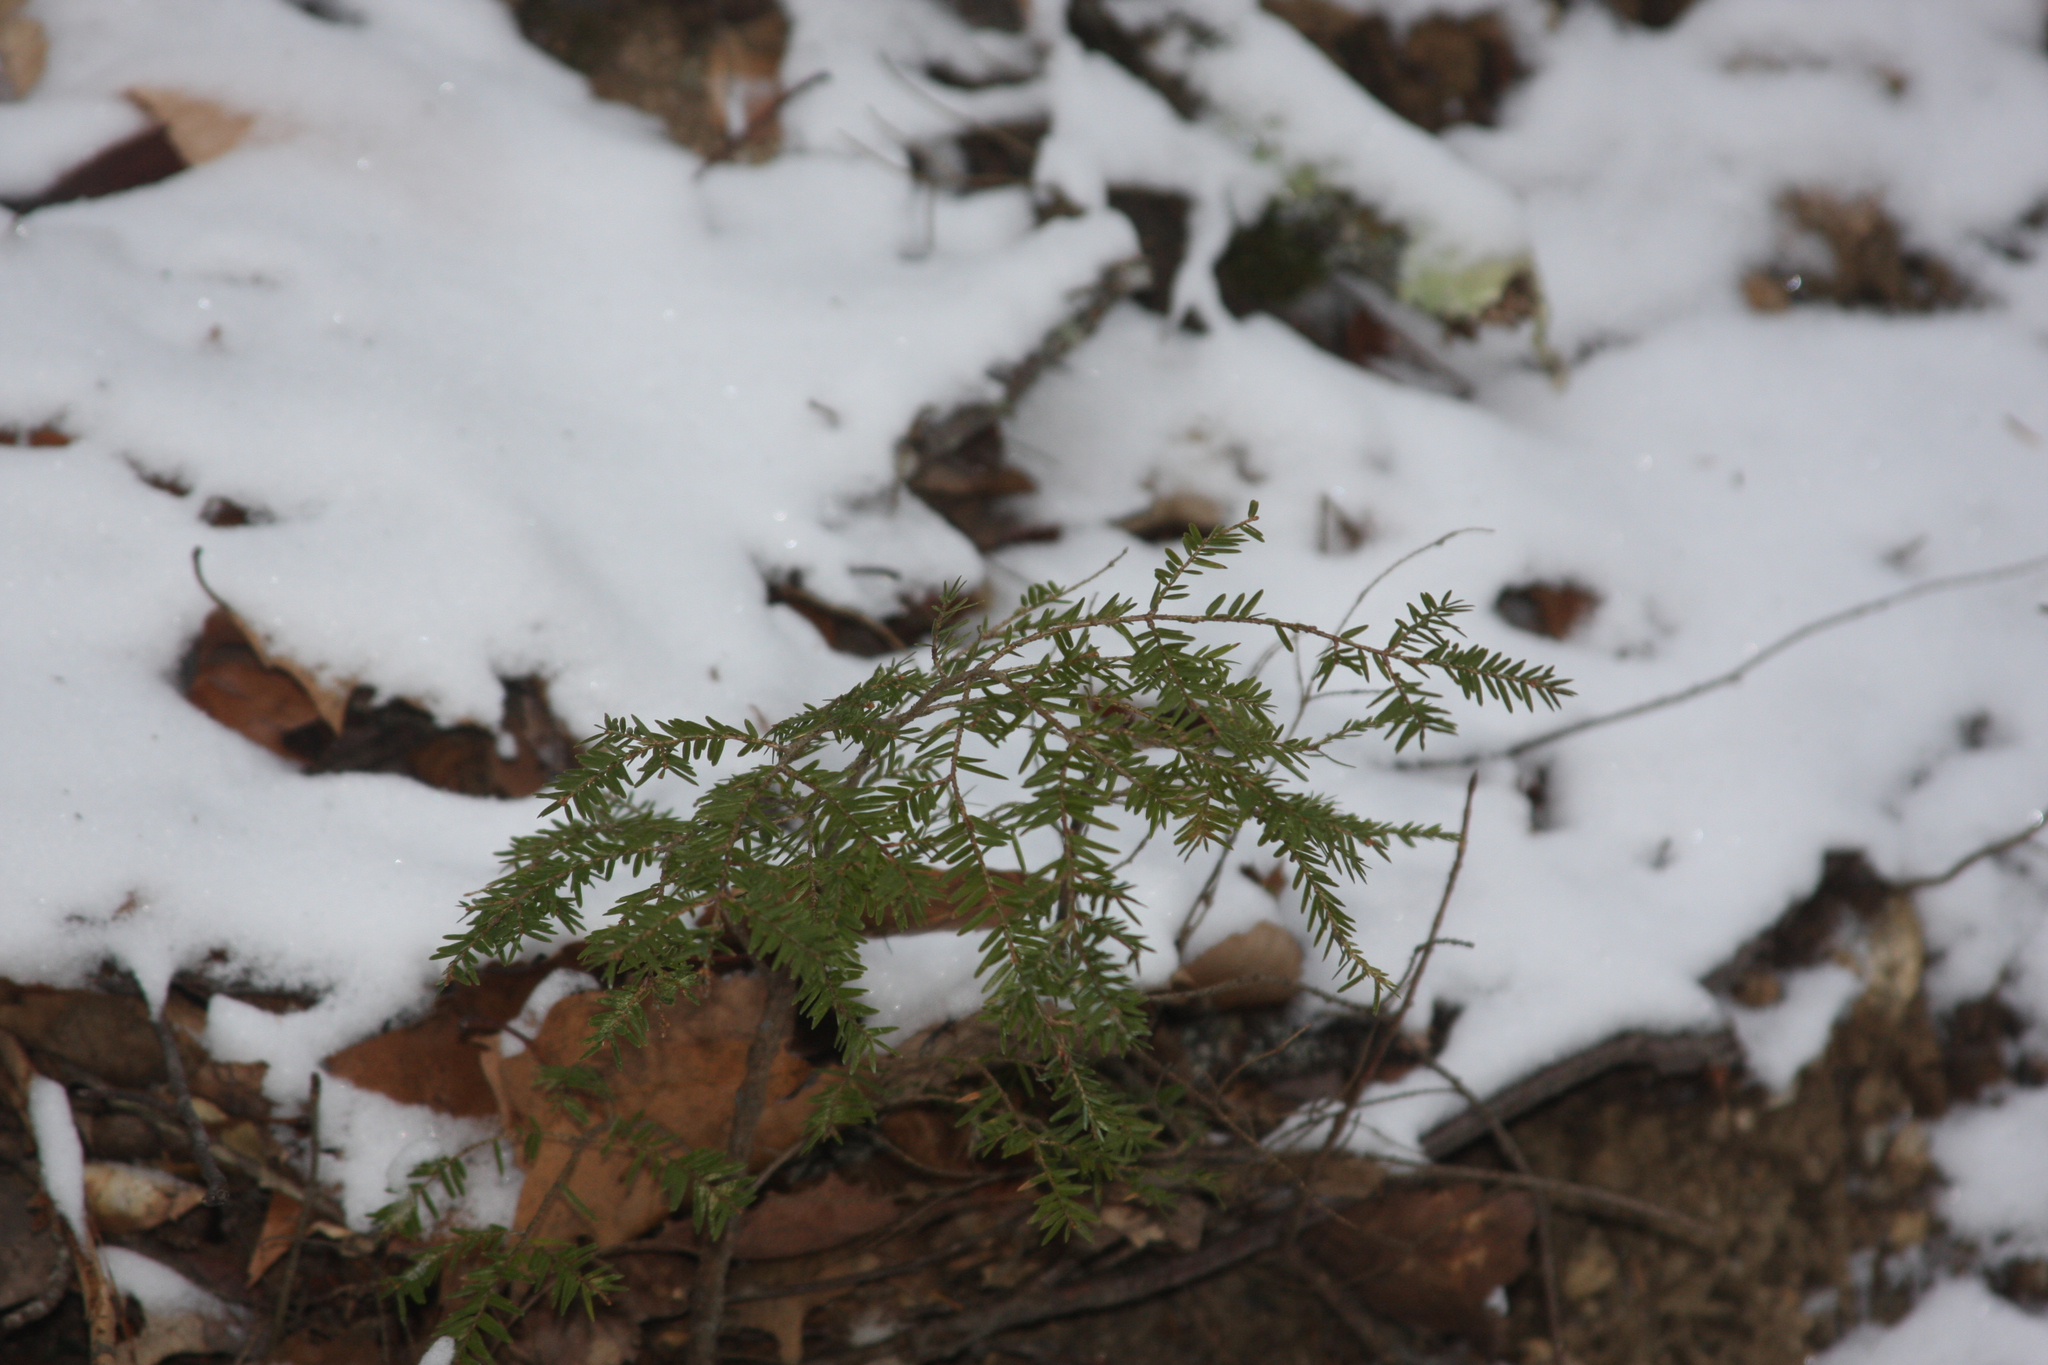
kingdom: Plantae
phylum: Tracheophyta
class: Pinopsida
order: Pinales
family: Pinaceae
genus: Tsuga
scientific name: Tsuga canadensis
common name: Eastern hemlock
